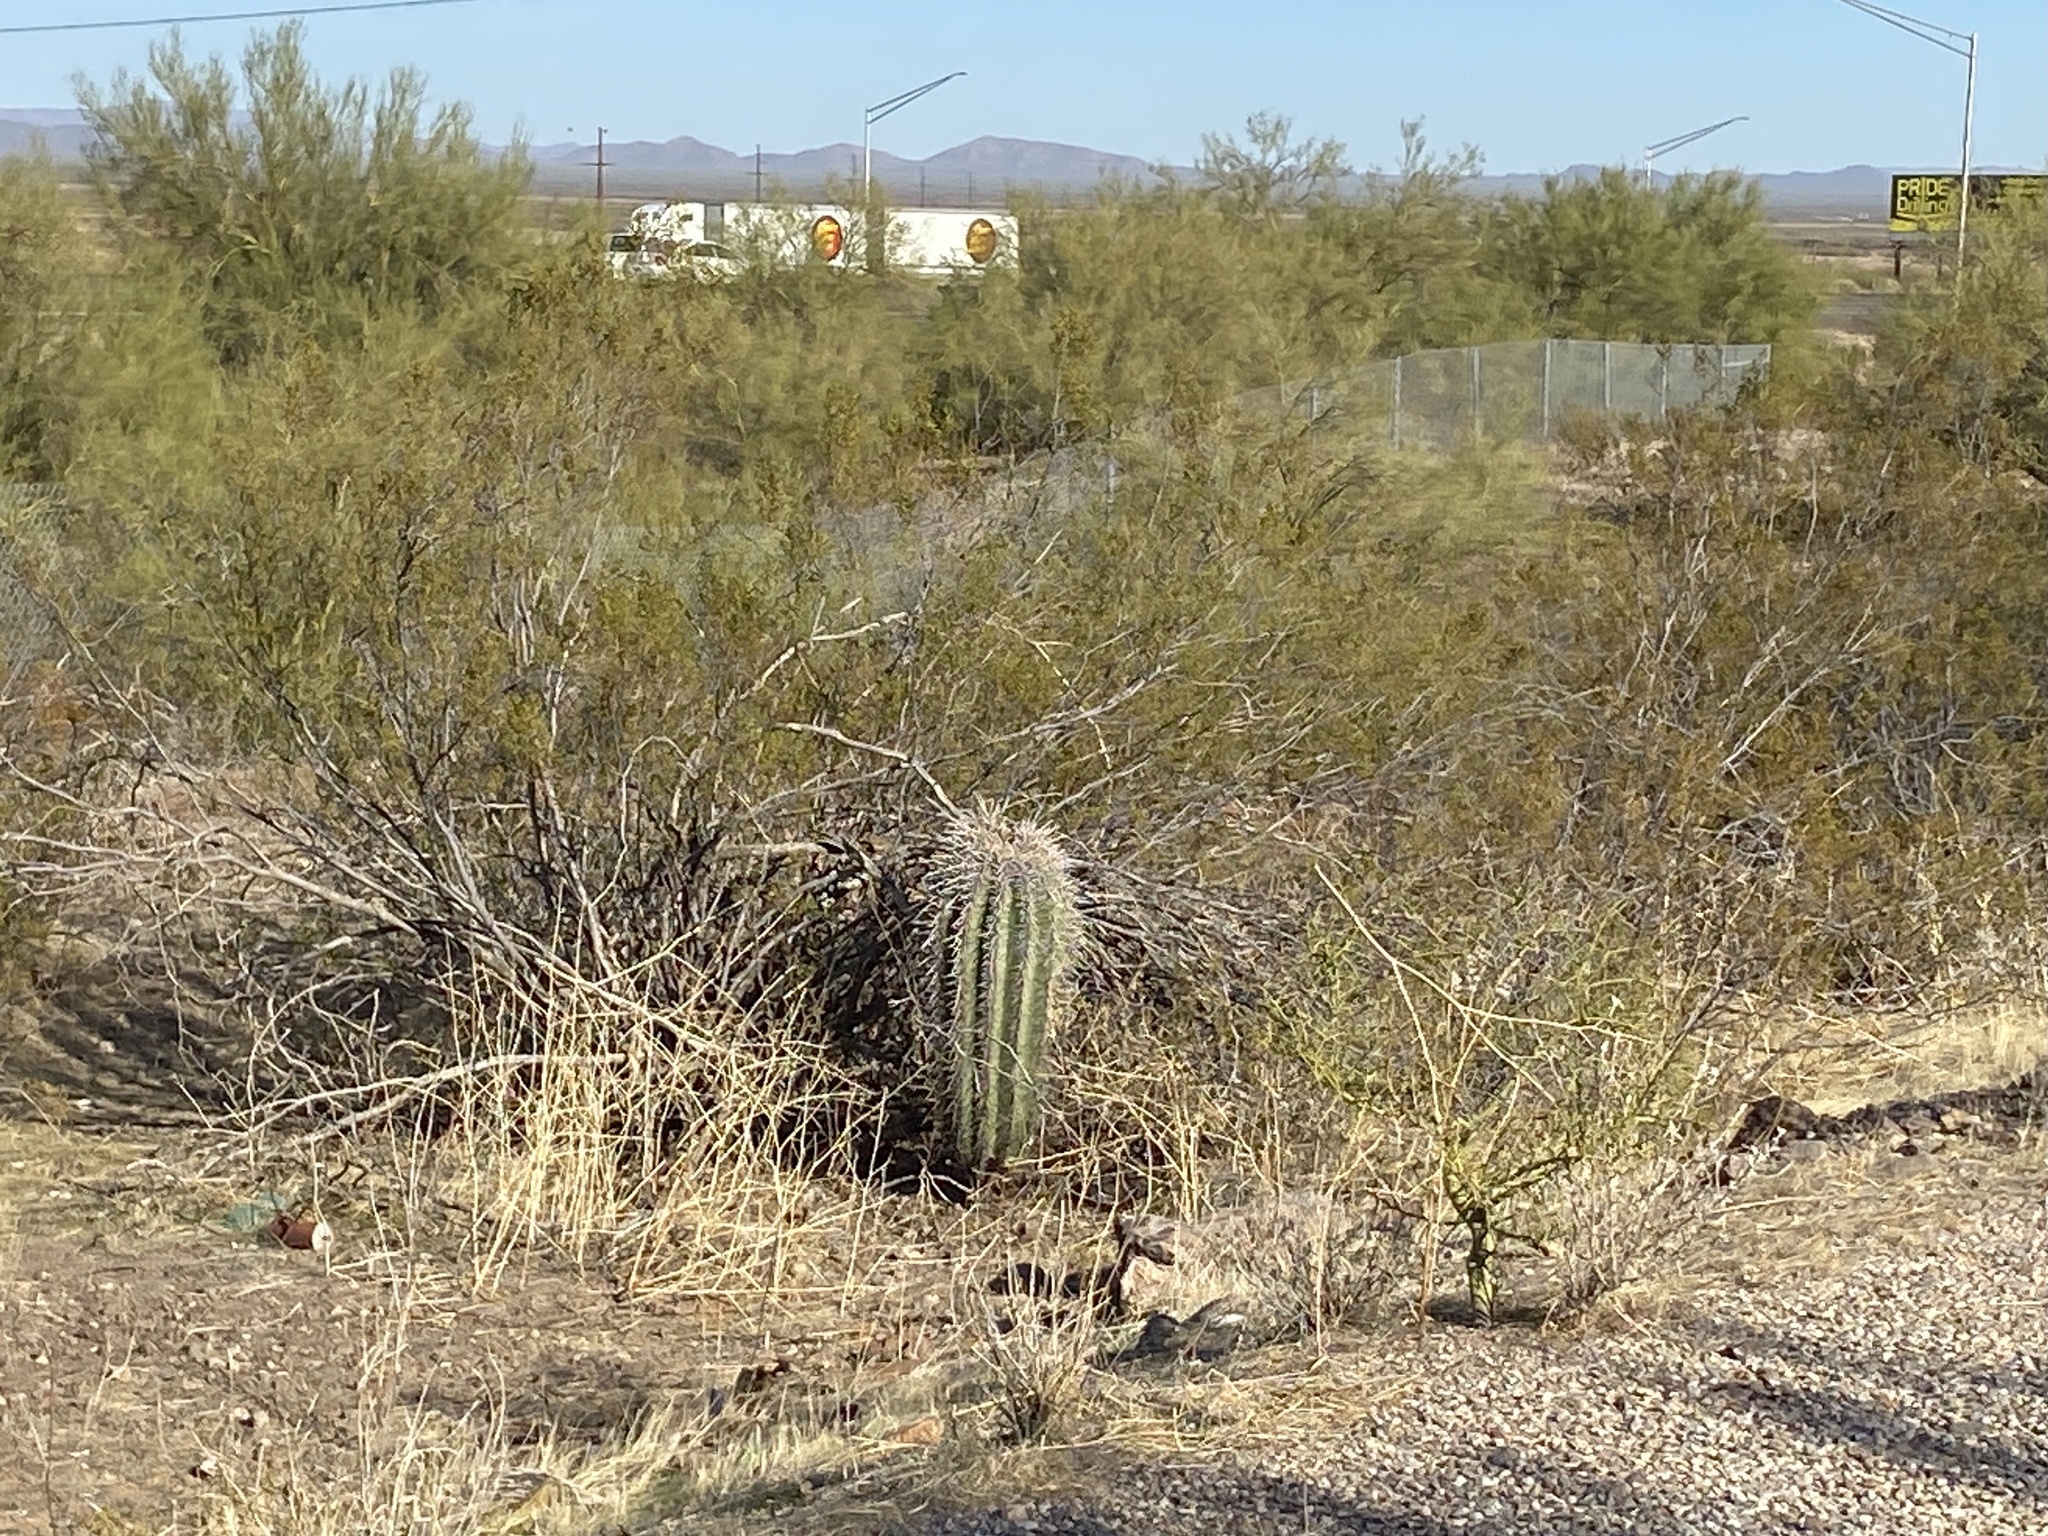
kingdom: Plantae
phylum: Tracheophyta
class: Magnoliopsida
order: Caryophyllales
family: Cactaceae
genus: Carnegiea
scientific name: Carnegiea gigantea
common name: Saguaro
